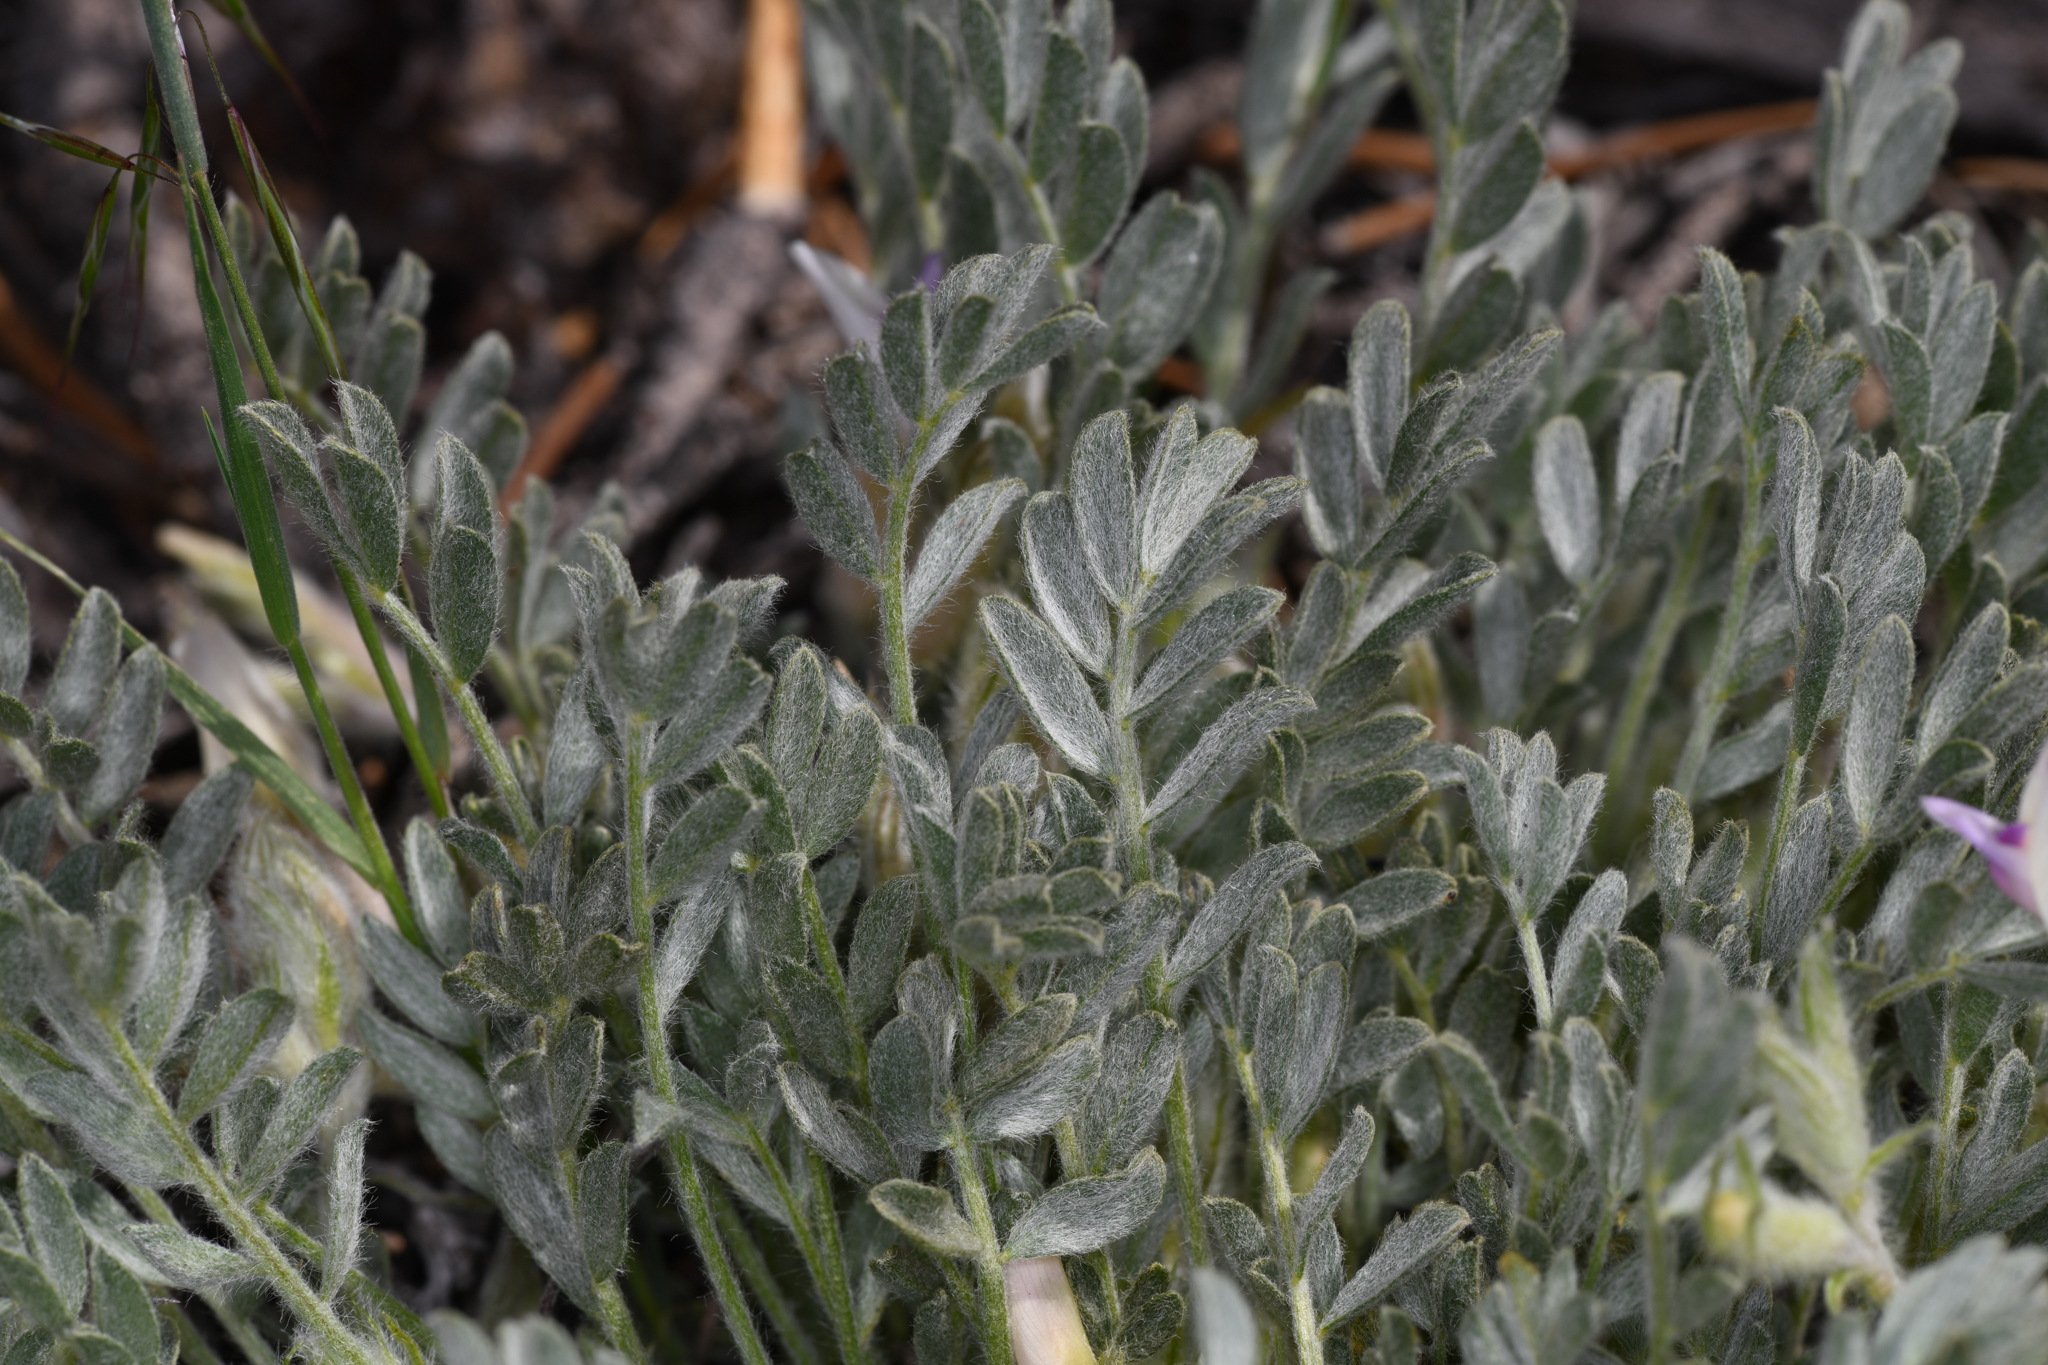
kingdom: Plantae
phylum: Tracheophyta
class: Magnoliopsida
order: Fabales
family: Fabaceae
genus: Astragalus
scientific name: Astragalus purshii
